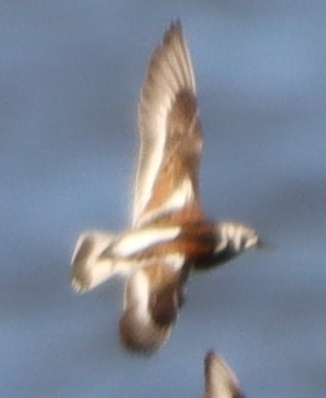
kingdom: Animalia
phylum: Chordata
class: Aves
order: Charadriiformes
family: Scolopacidae
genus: Arenaria
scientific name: Arenaria interpres
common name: Ruddy turnstone
